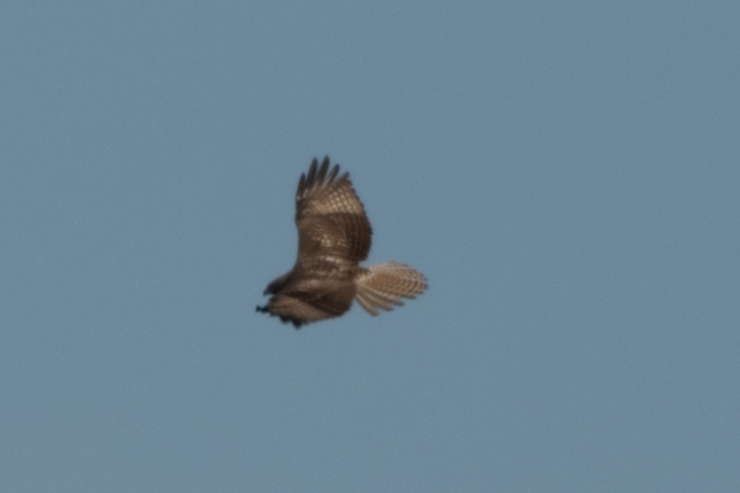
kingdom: Animalia
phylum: Chordata
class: Aves
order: Accipitriformes
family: Accipitridae
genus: Buteo
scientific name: Buteo jamaicensis
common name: Red-tailed hawk
